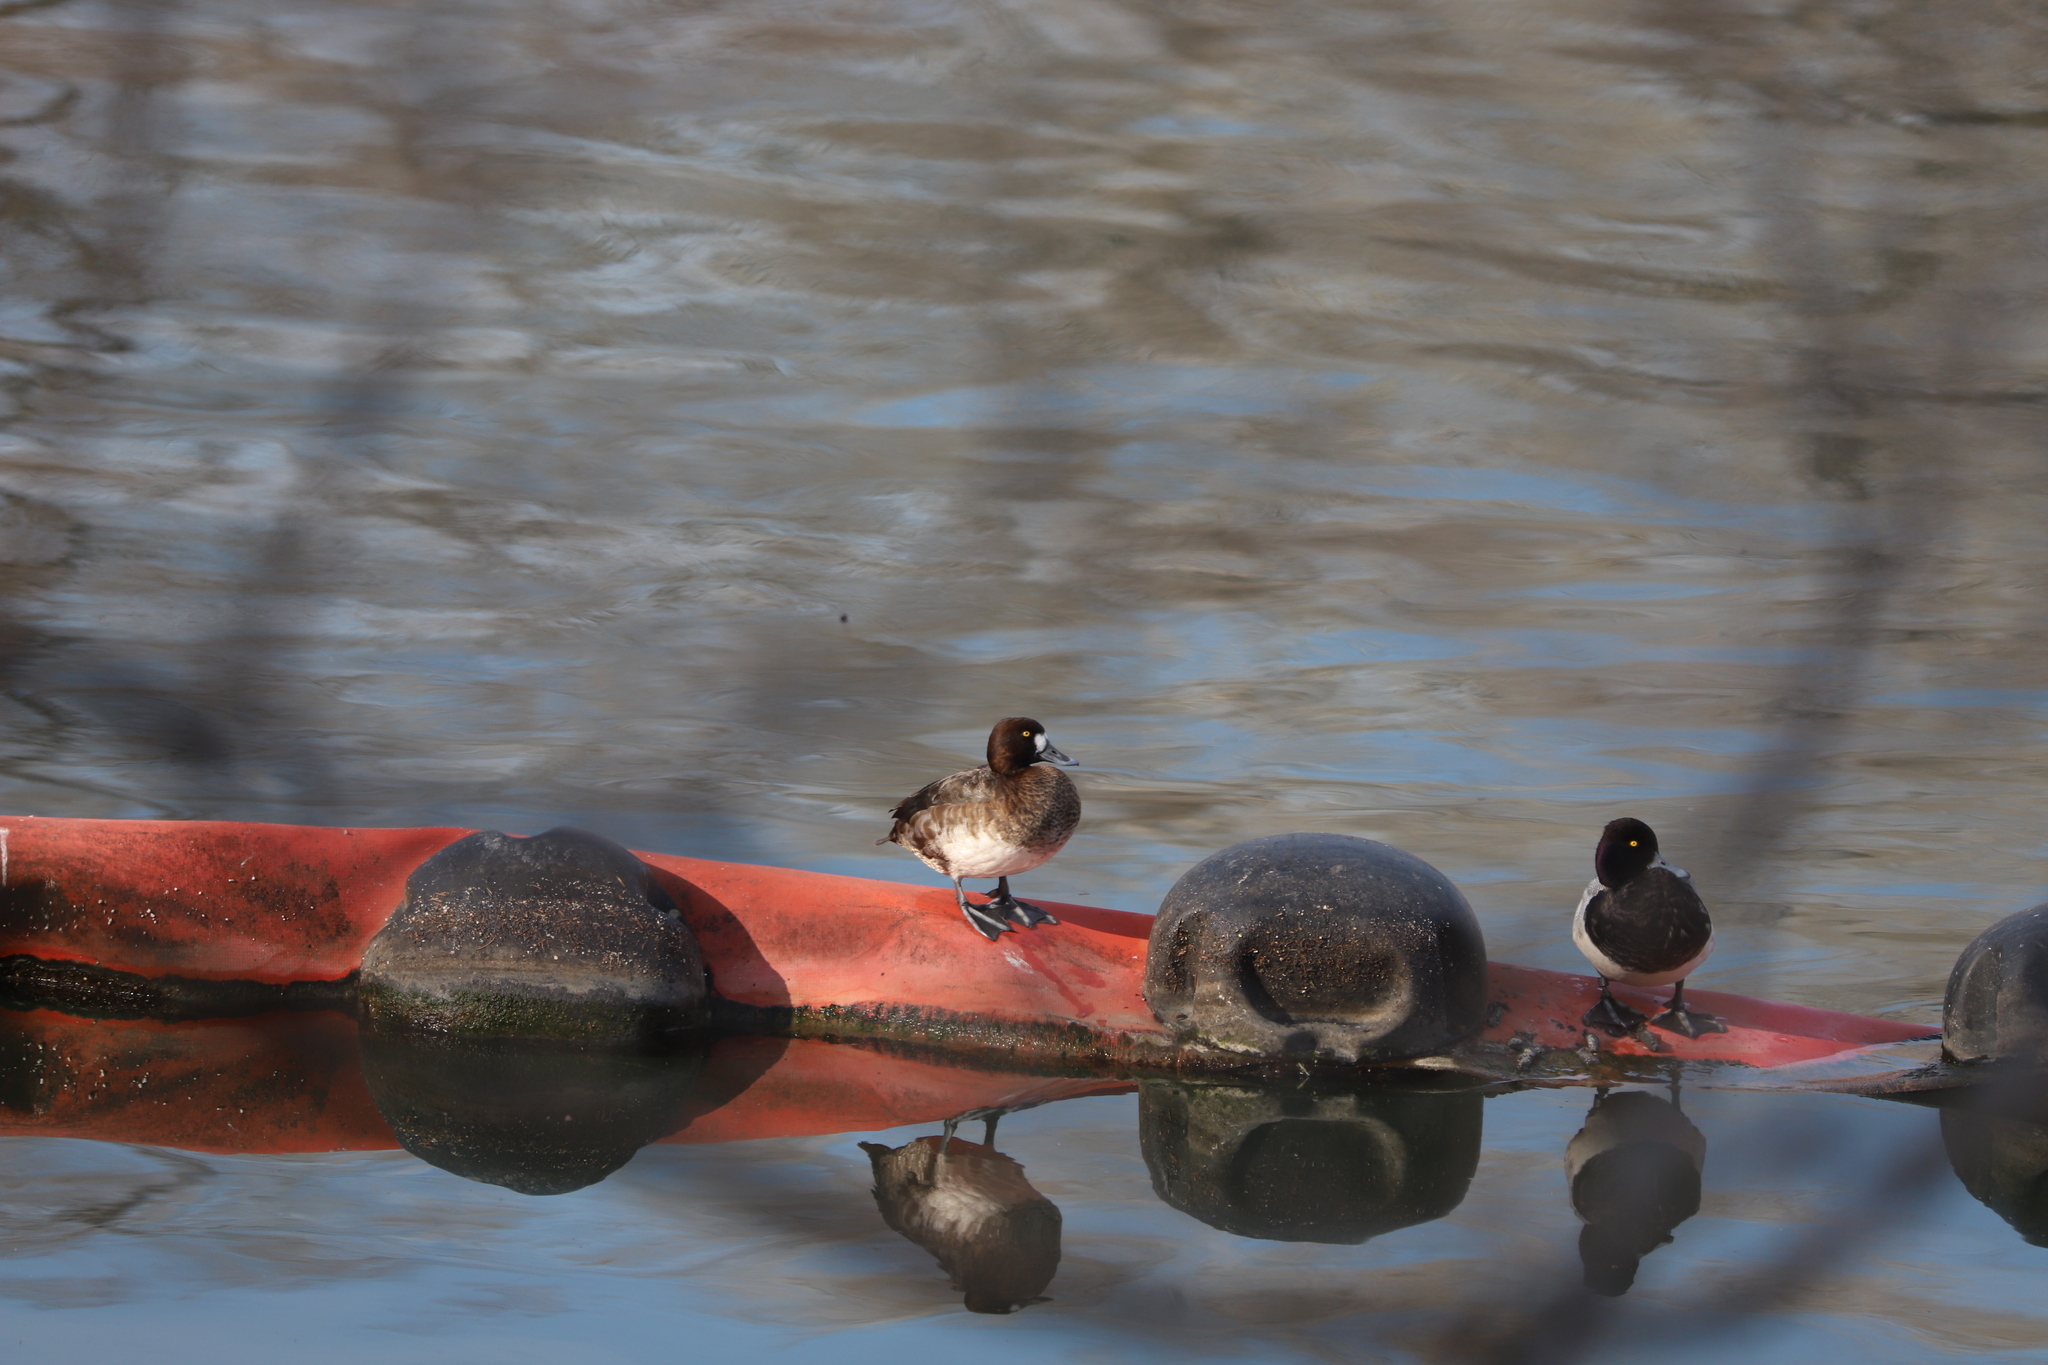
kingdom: Animalia
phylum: Chordata
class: Aves
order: Anseriformes
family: Anatidae
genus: Aythya
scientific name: Aythya affinis
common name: Lesser scaup
